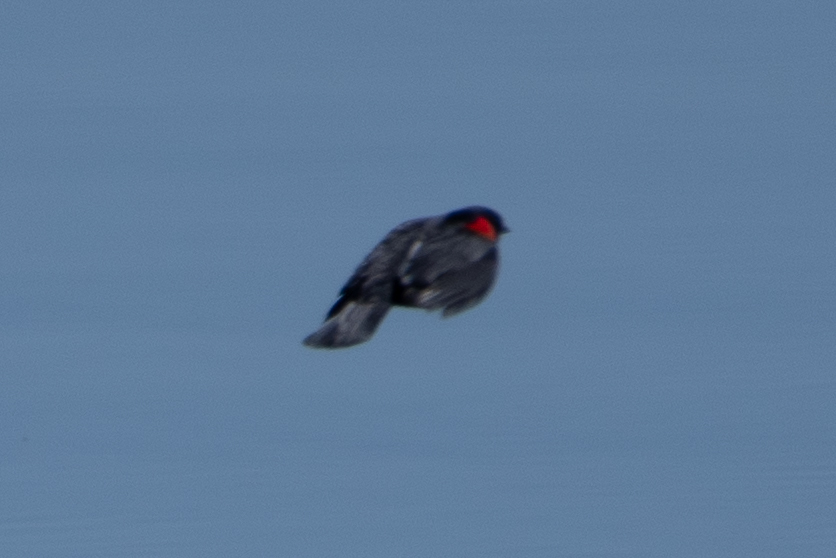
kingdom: Animalia
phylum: Chordata
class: Aves
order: Passeriformes
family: Icteridae
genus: Agelaius
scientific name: Agelaius phoeniceus
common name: Red-winged blackbird
